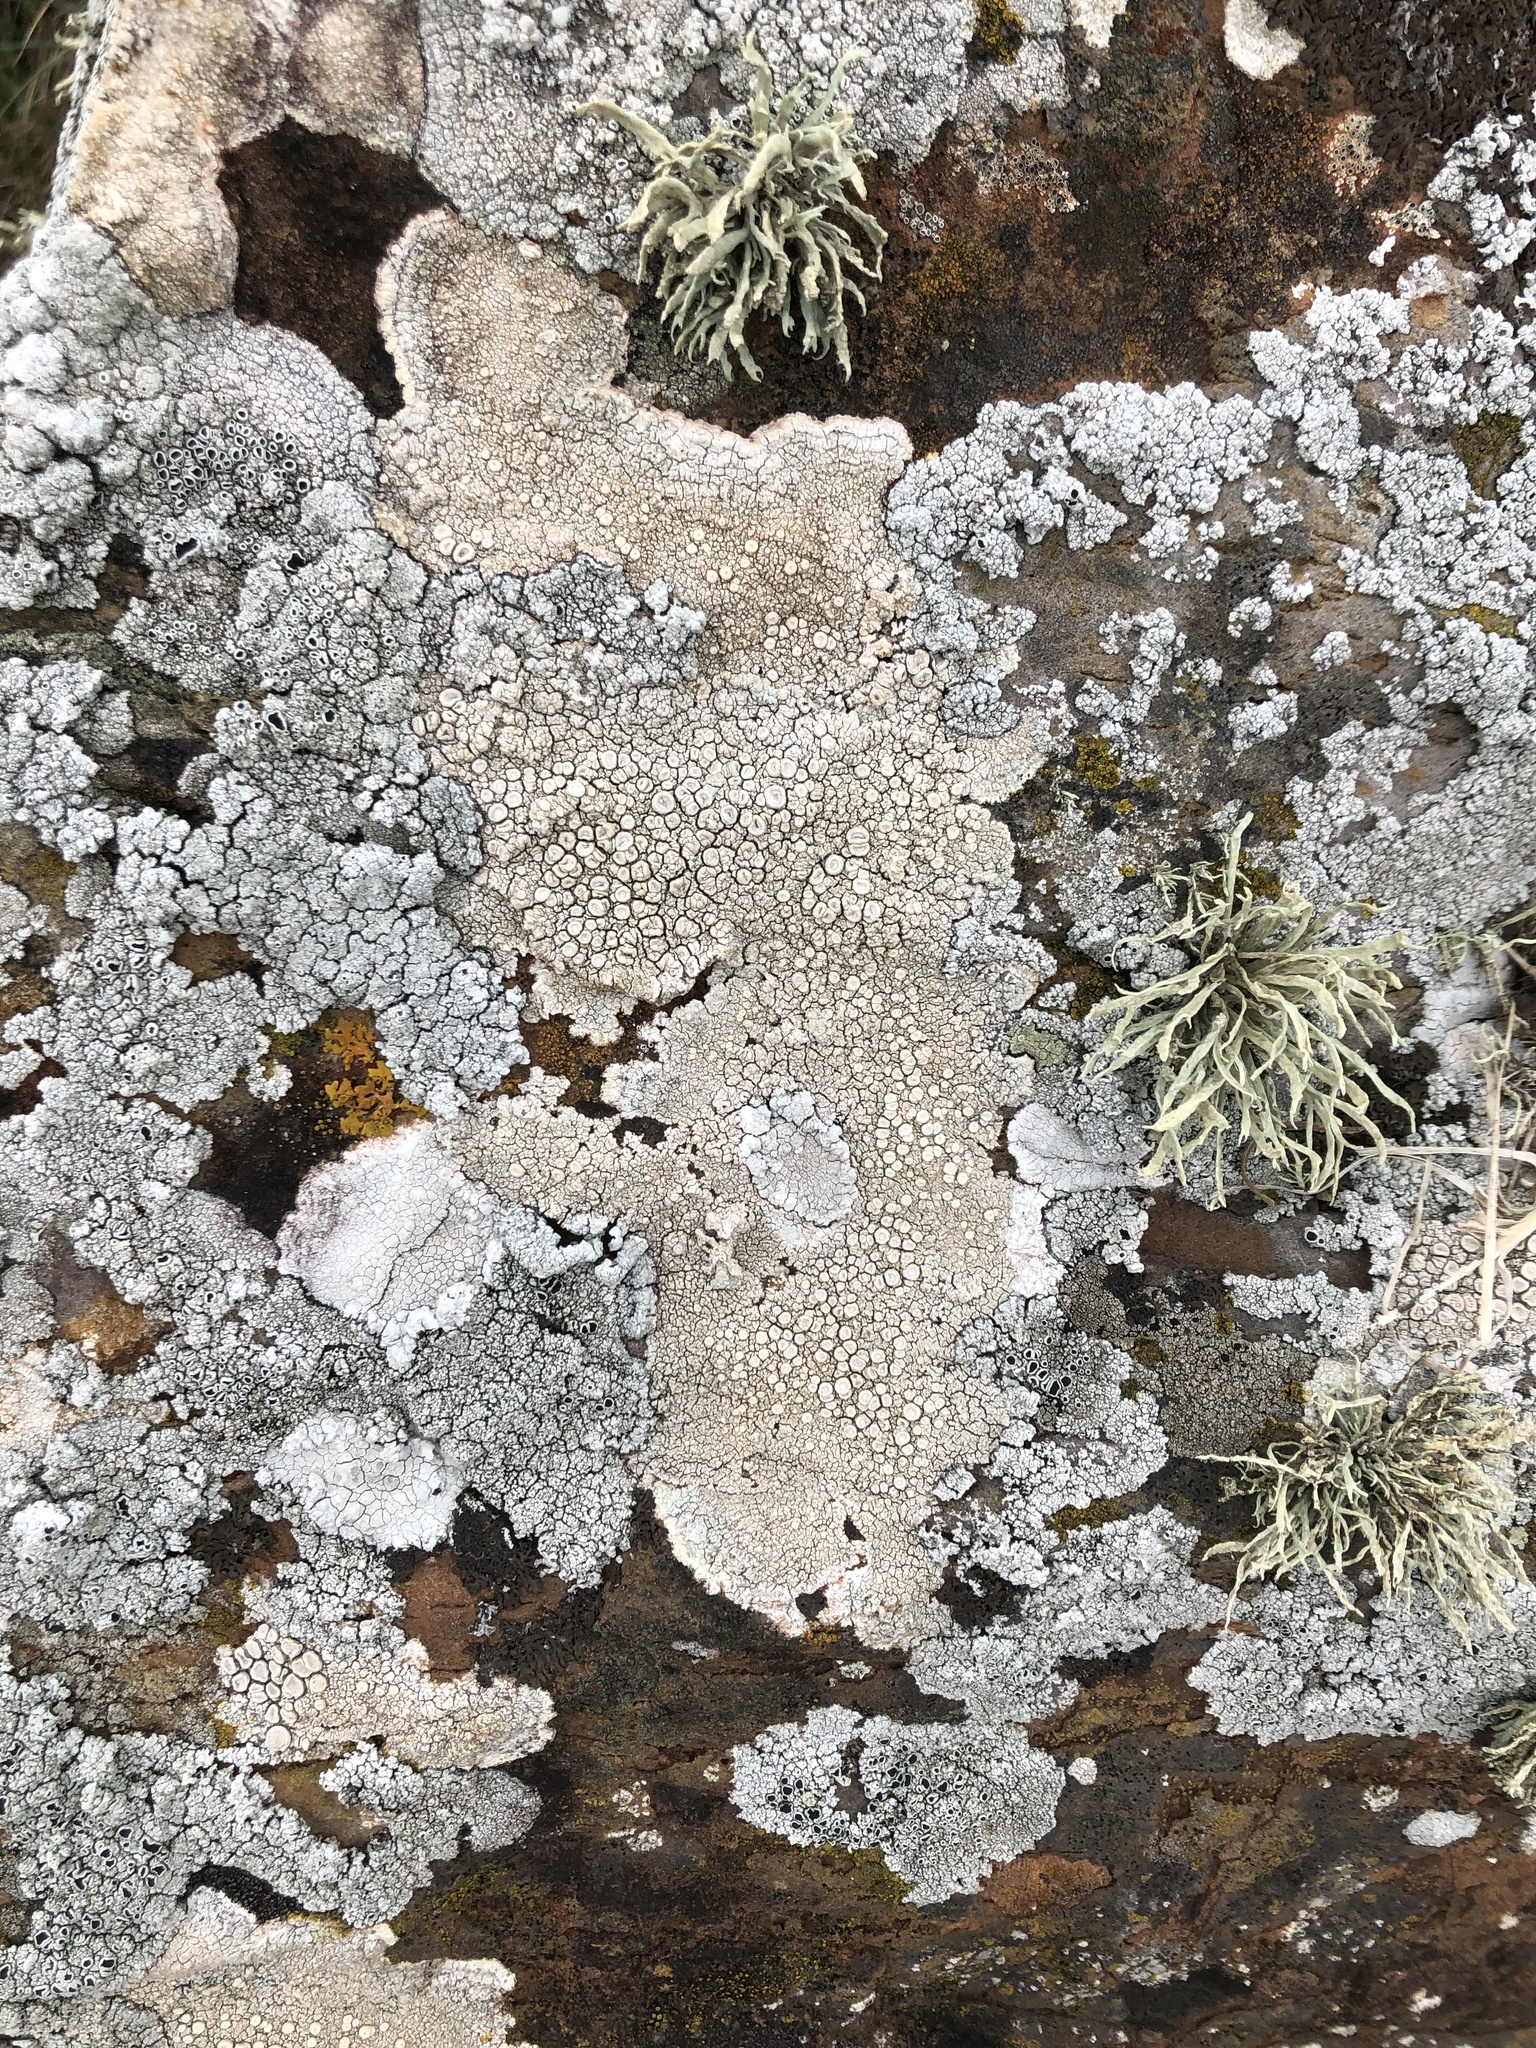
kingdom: Fungi
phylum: Ascomycota
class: Lecanoromycetes
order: Pertusariales
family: Ochrolechiaceae
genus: Ochrolechia
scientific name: Ochrolechia parella
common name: Crab's eye lichen
